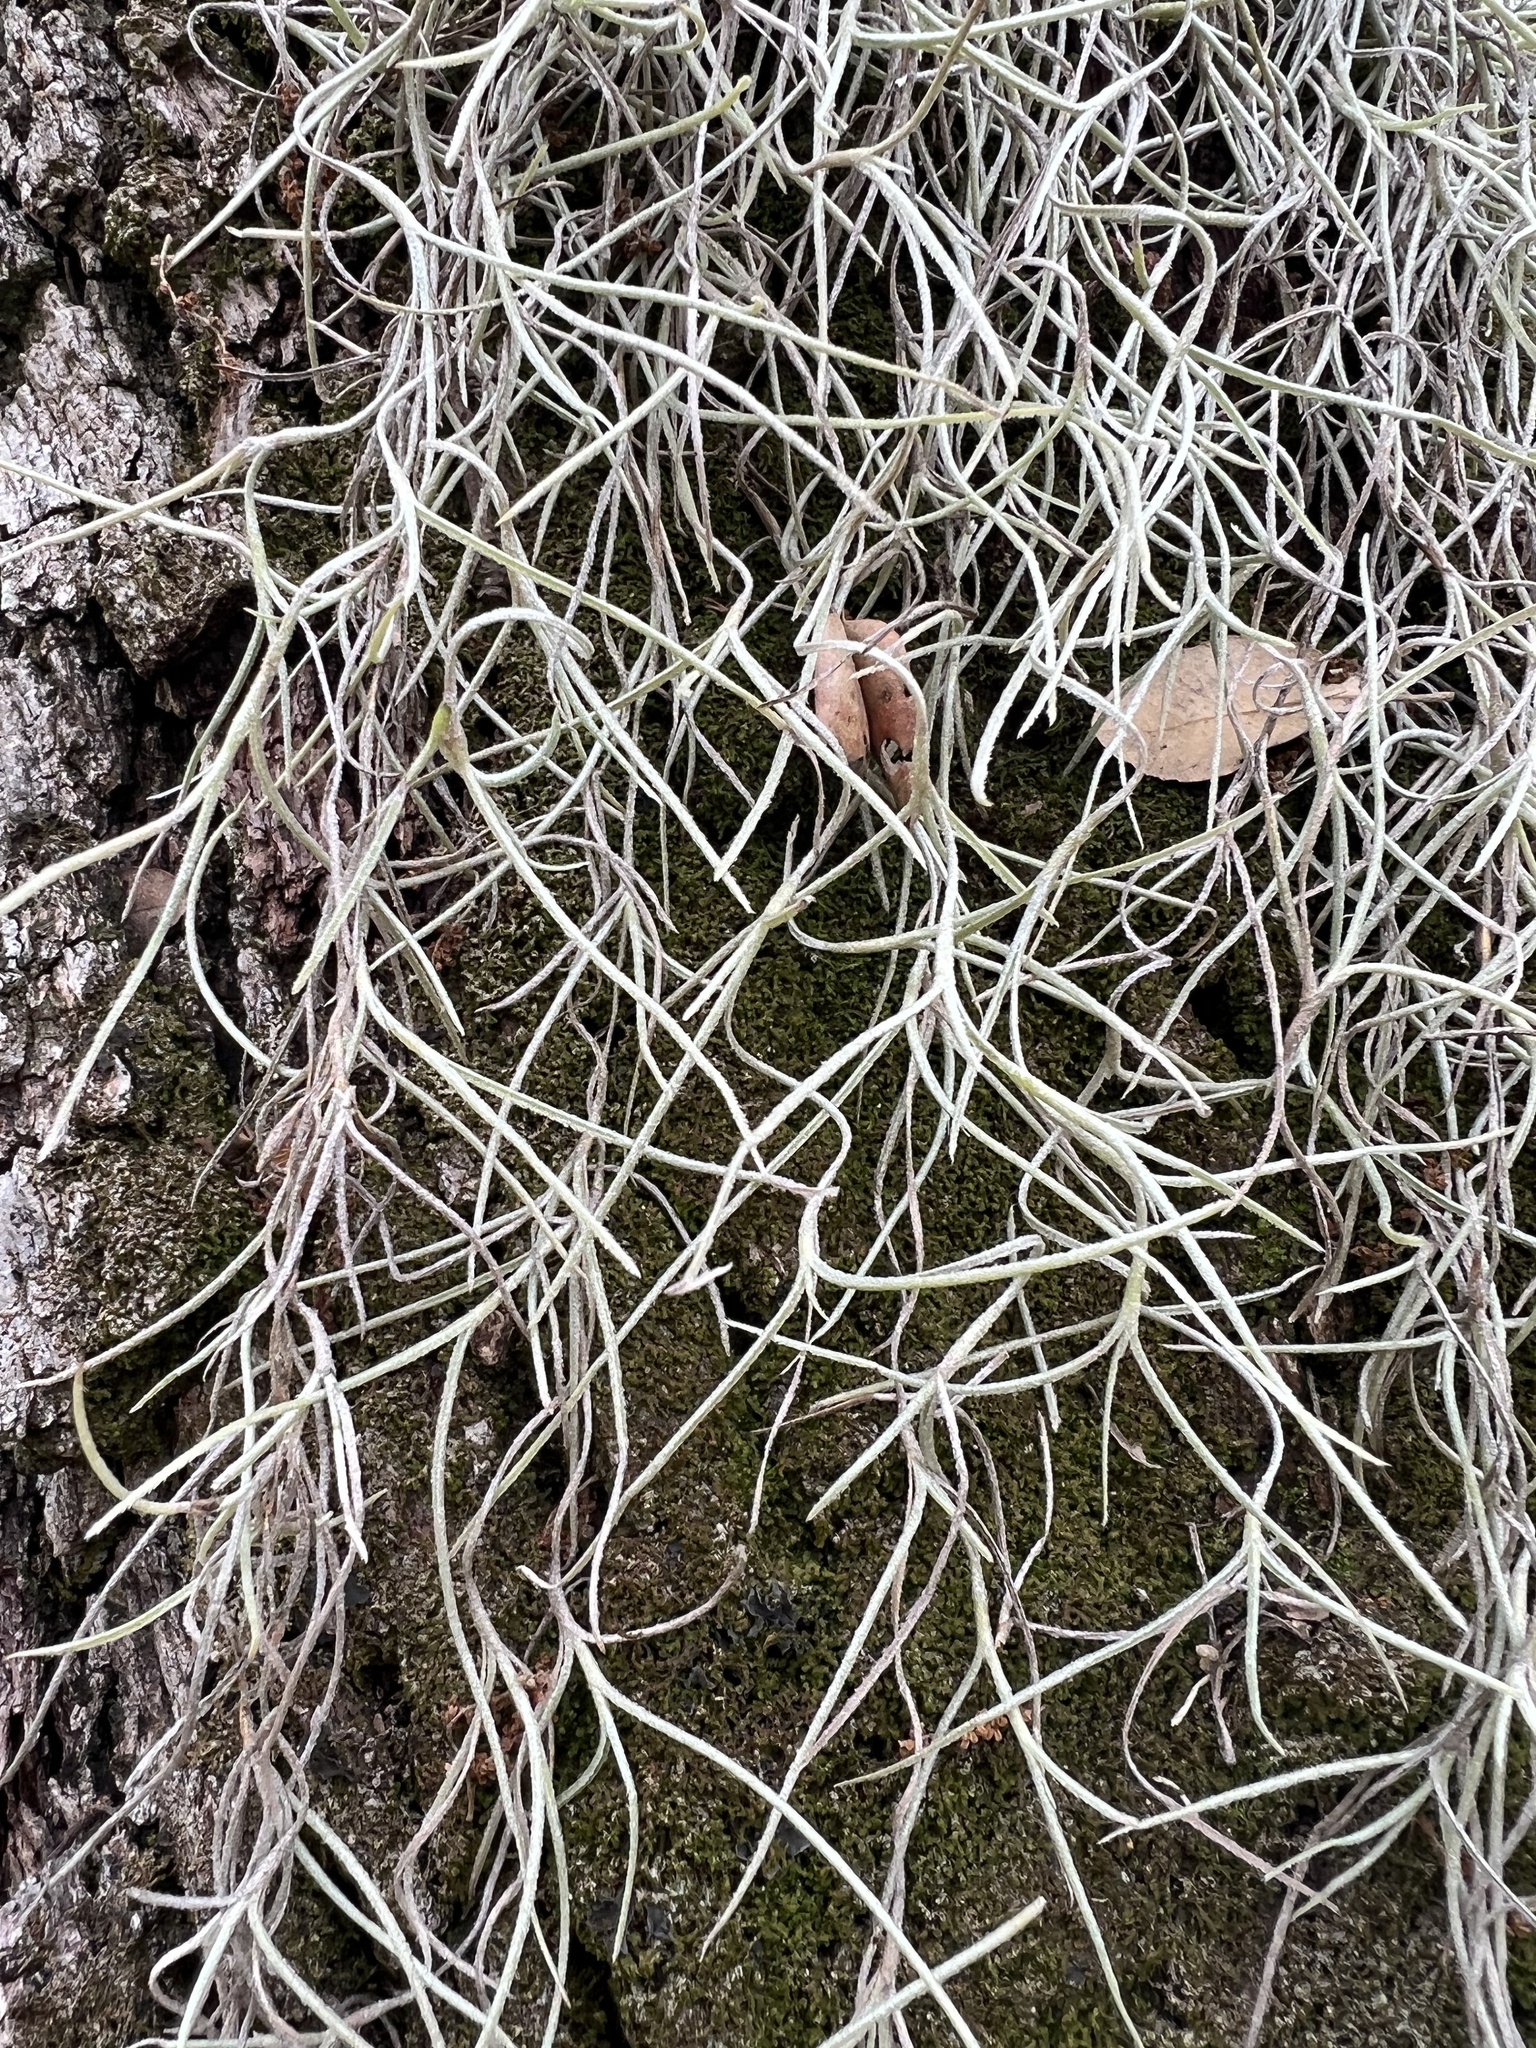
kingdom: Plantae
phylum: Tracheophyta
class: Liliopsida
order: Poales
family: Bromeliaceae
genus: Tillandsia
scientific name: Tillandsia usneoides
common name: Spanish moss
